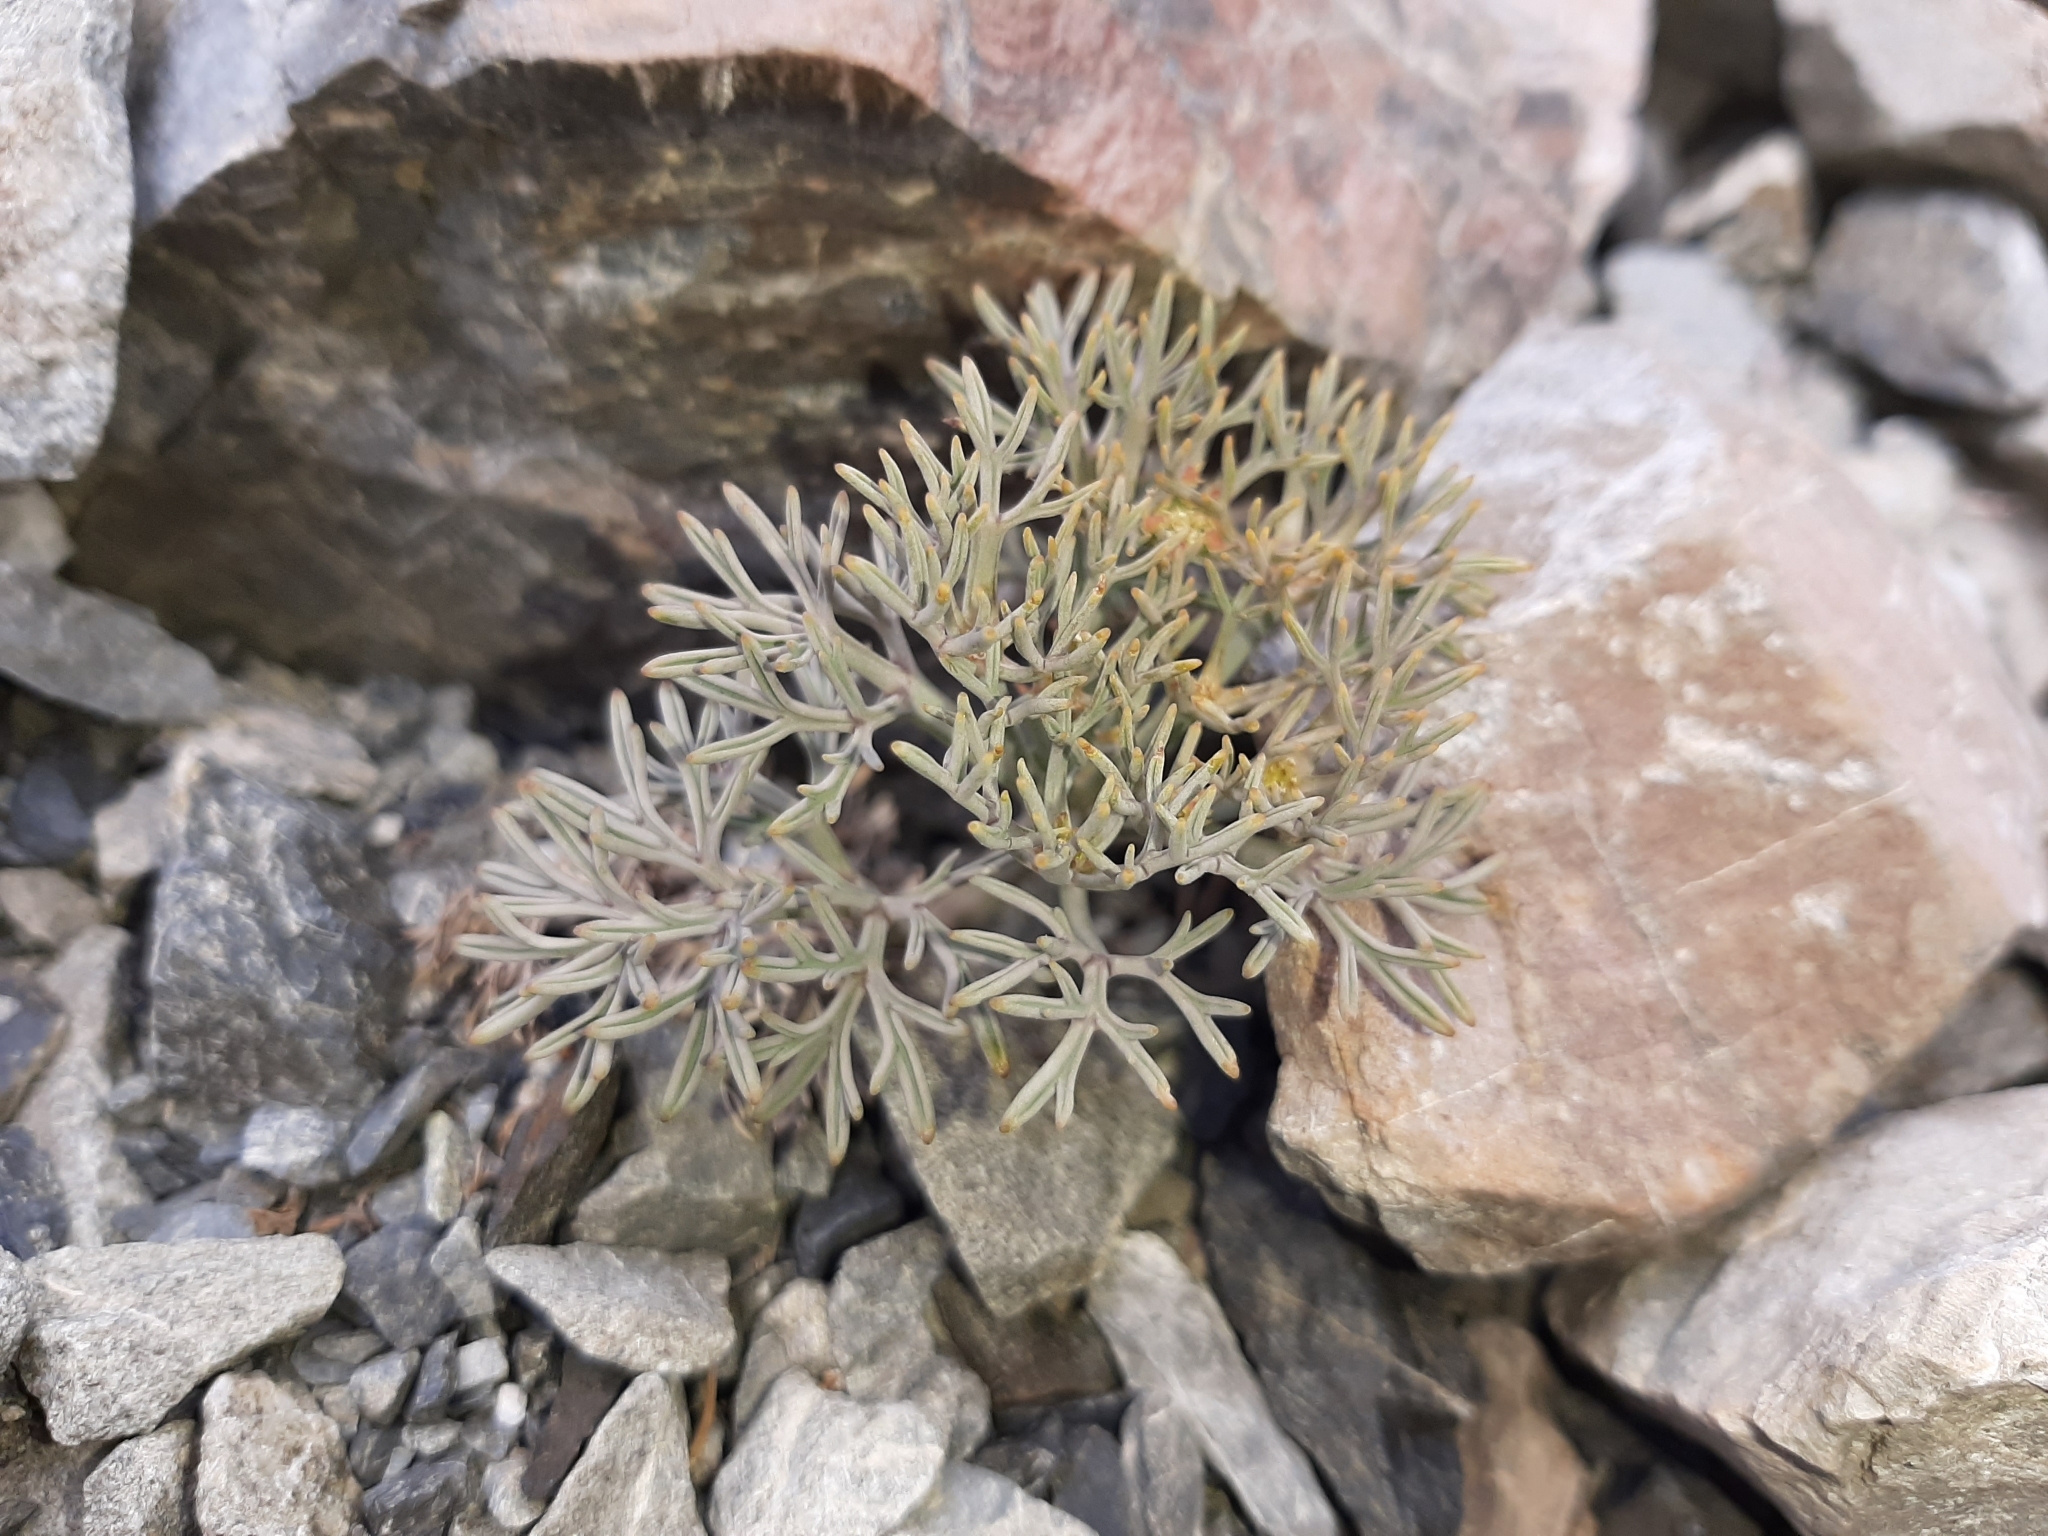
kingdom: Plantae
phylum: Tracheophyta
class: Magnoliopsida
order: Apiales
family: Apiaceae
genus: Lignocarpa
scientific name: Lignocarpa carnosula
